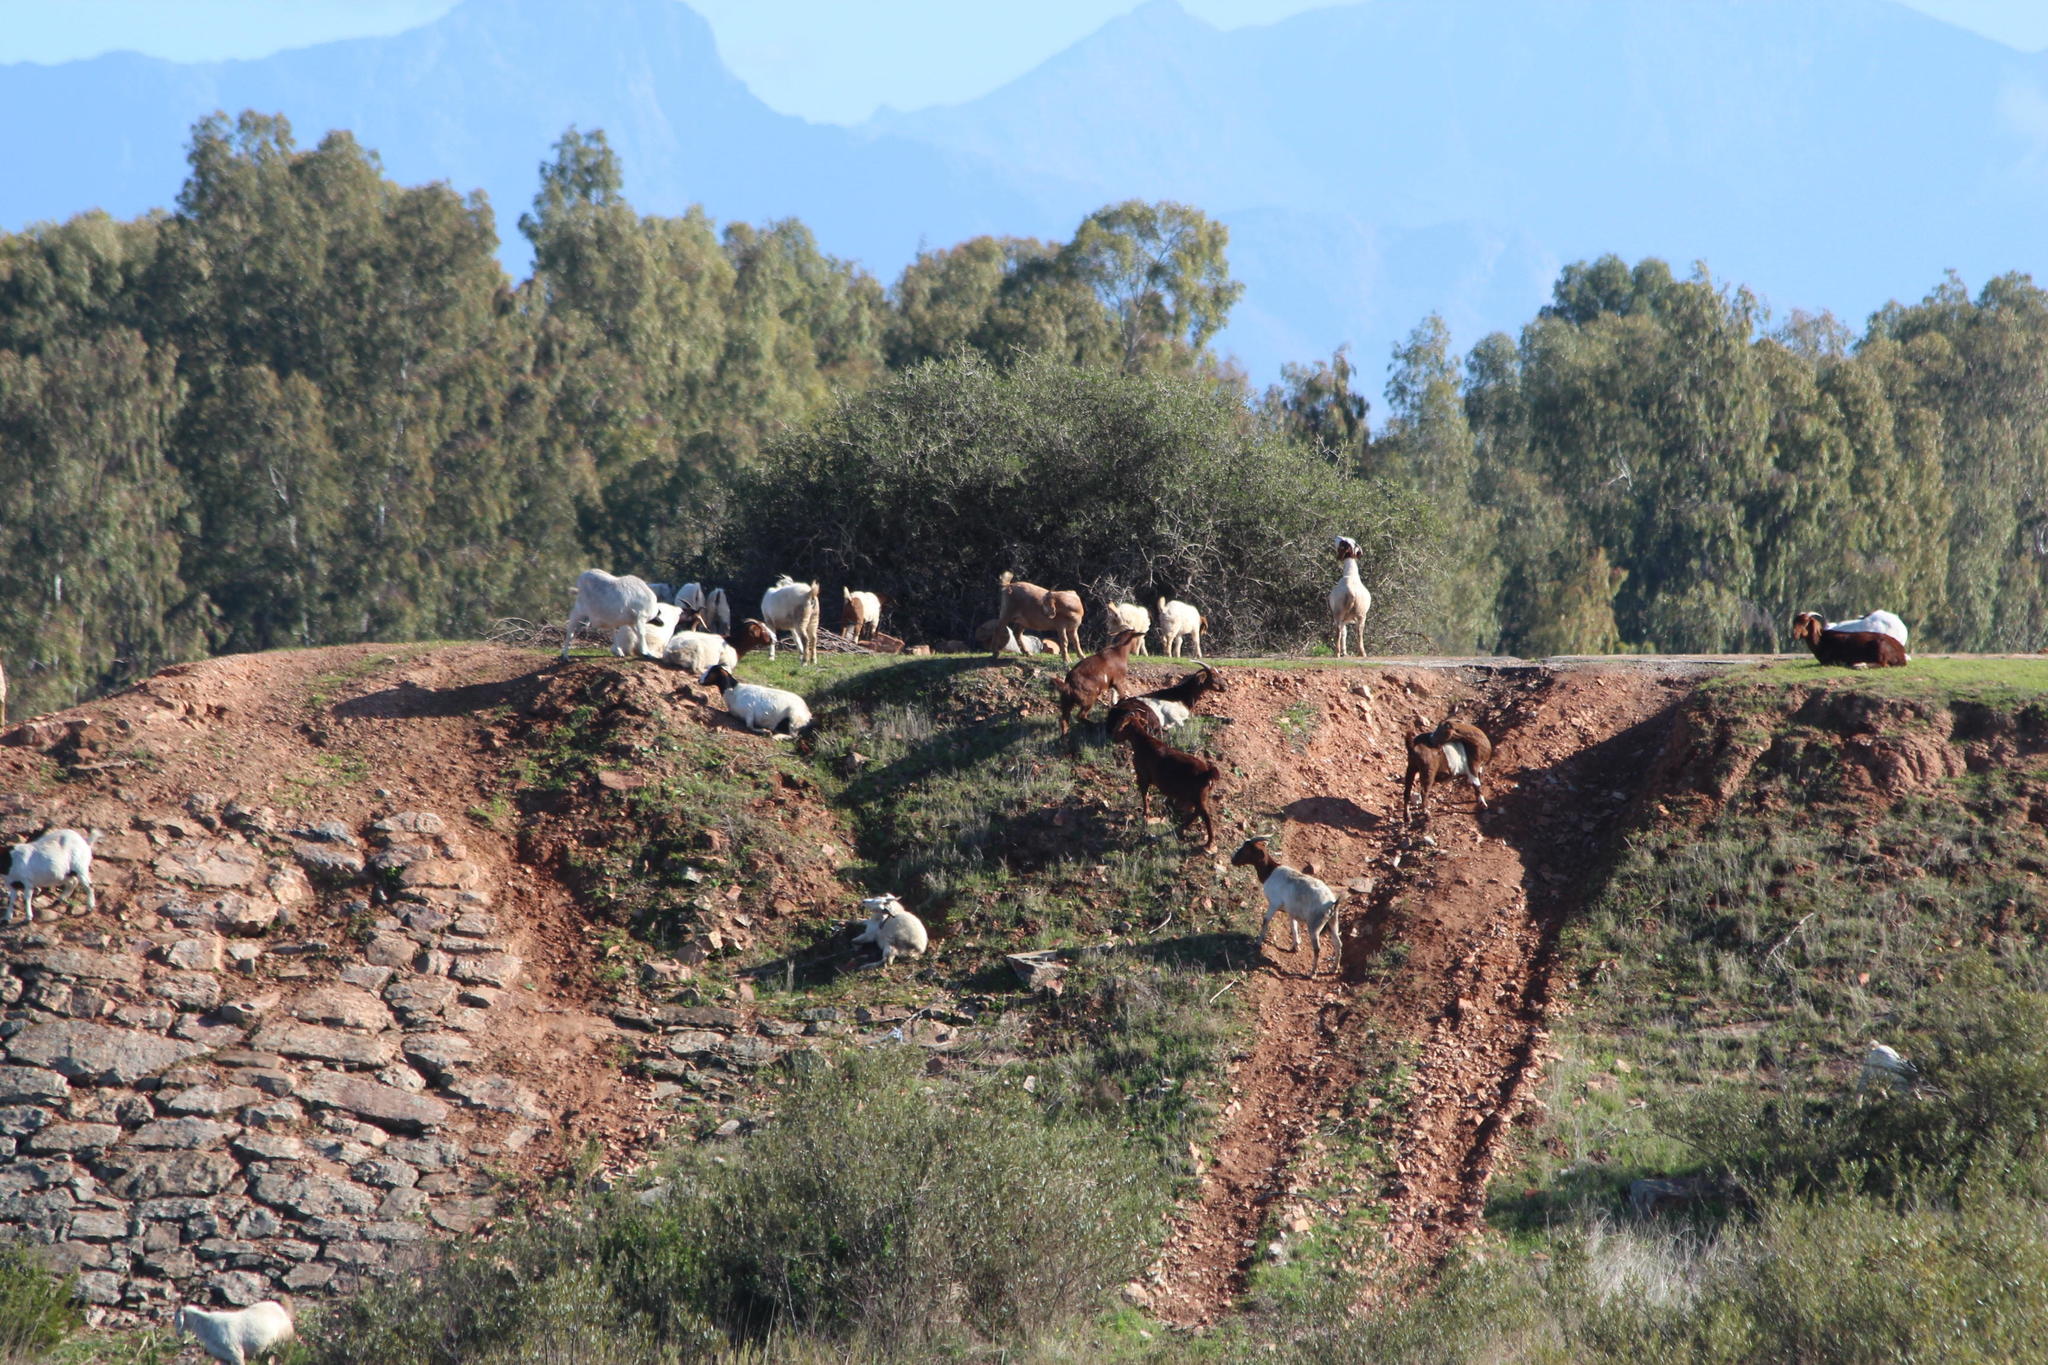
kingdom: Animalia
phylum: Chordata
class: Mammalia
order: Artiodactyla
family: Bovidae
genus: Capra
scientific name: Capra hircus
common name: Domestic goat
